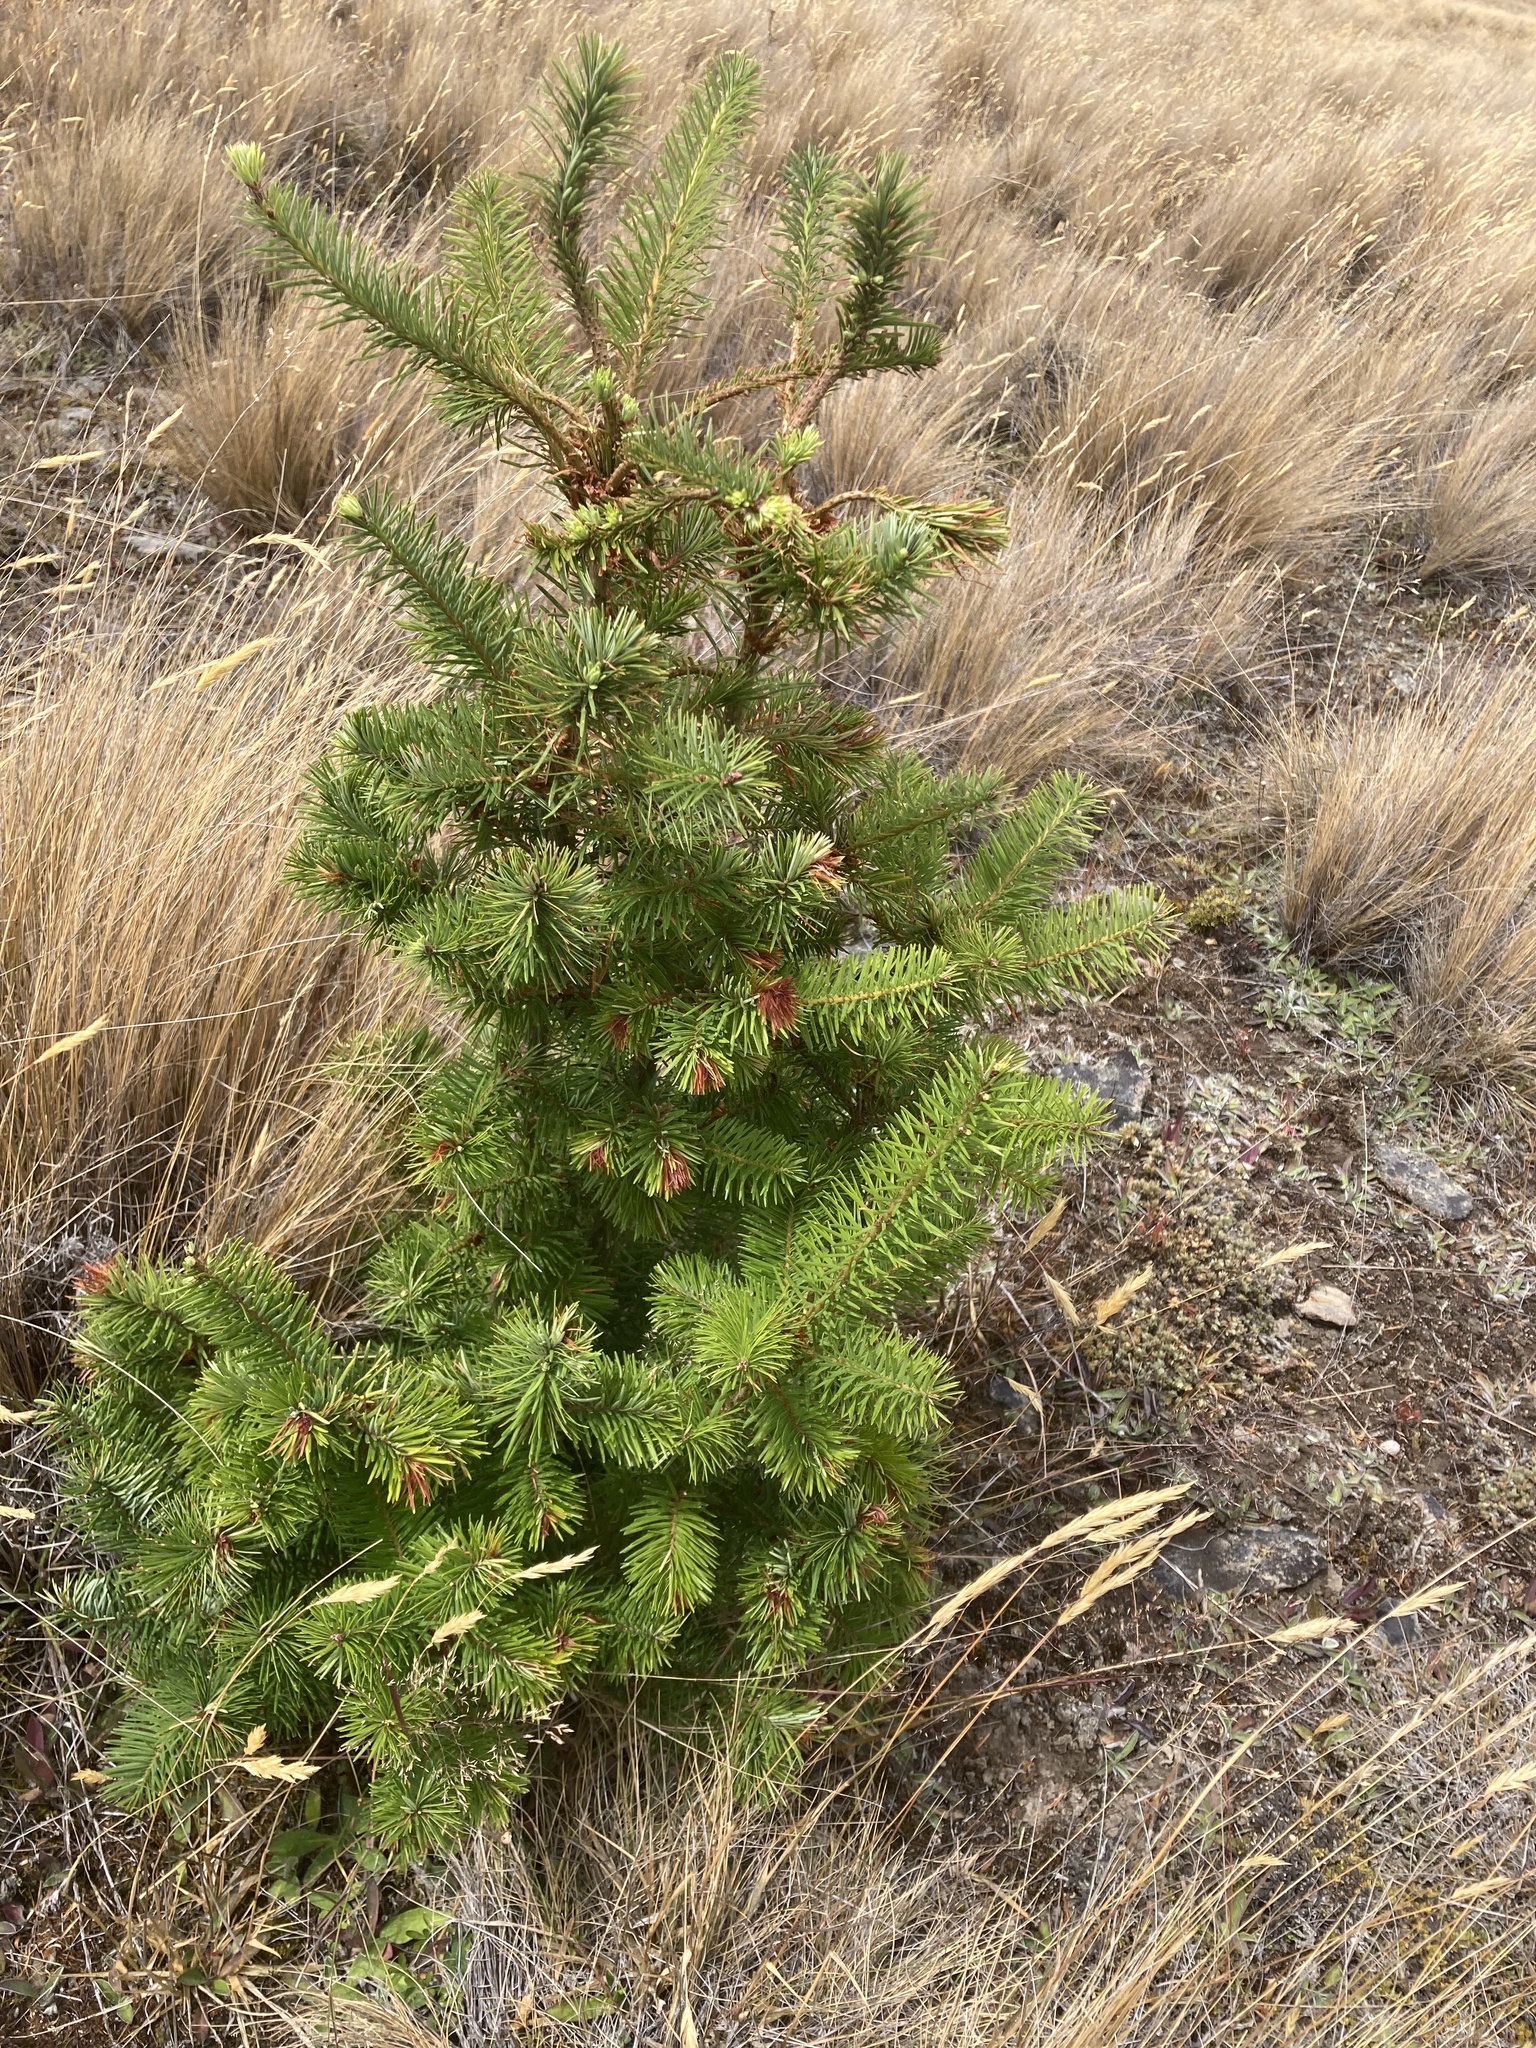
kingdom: Plantae
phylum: Tracheophyta
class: Pinopsida
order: Pinales
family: Pinaceae
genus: Pseudotsuga
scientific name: Pseudotsuga menziesii
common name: Douglas fir
